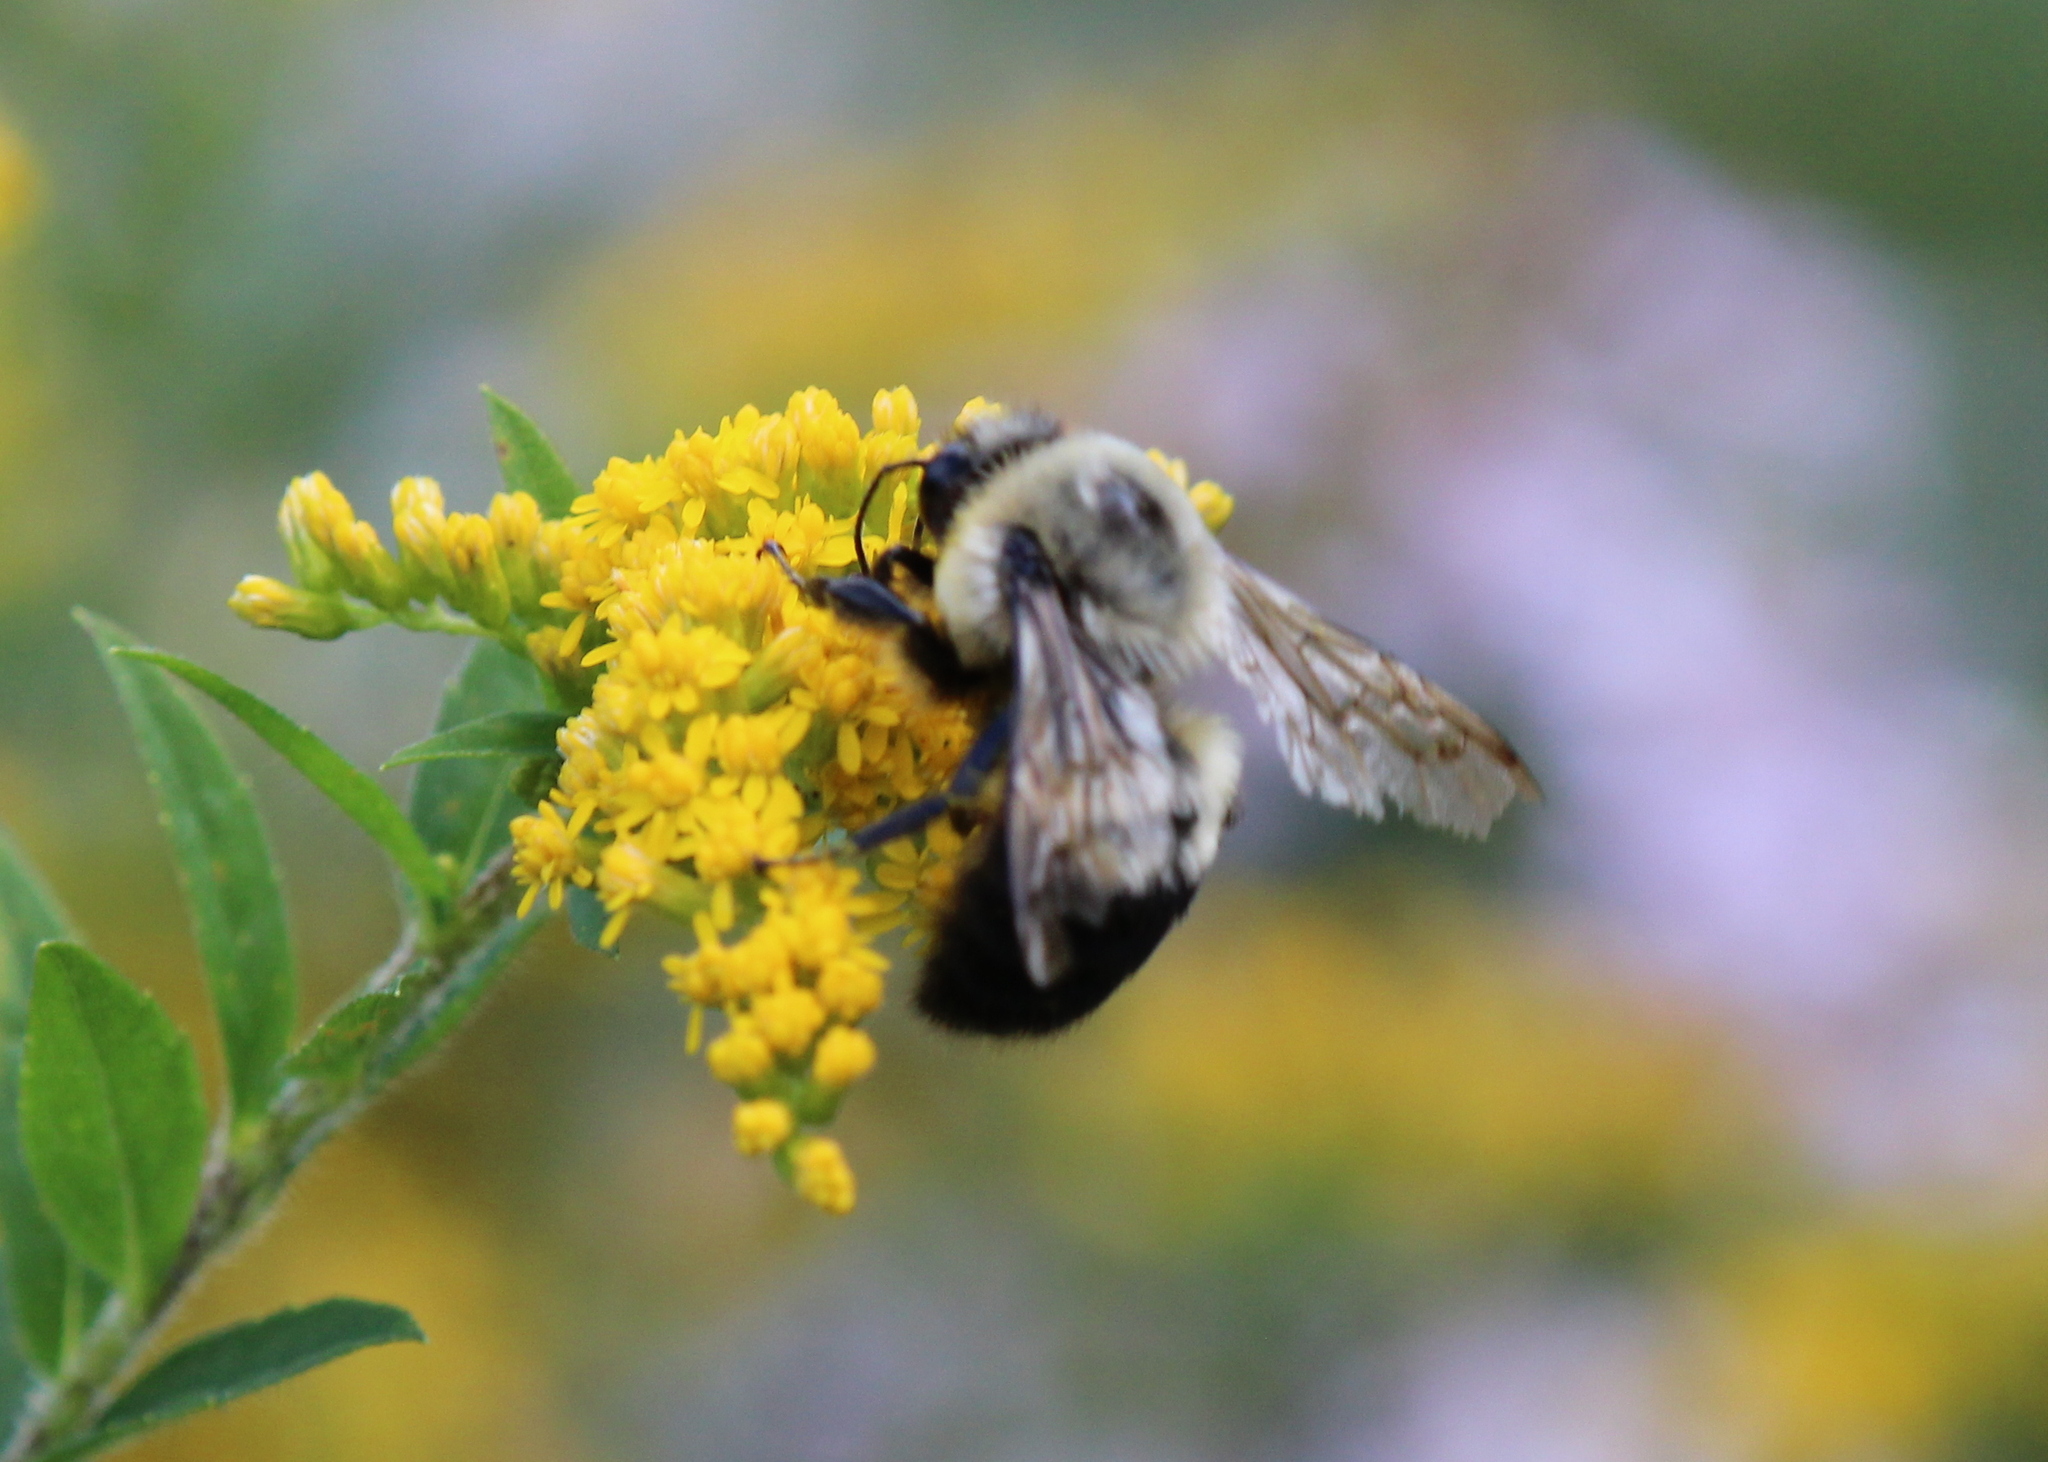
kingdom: Animalia
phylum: Arthropoda
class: Insecta
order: Hymenoptera
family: Apidae
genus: Bombus
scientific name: Bombus griseocollis
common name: Brown-belted bumble bee
